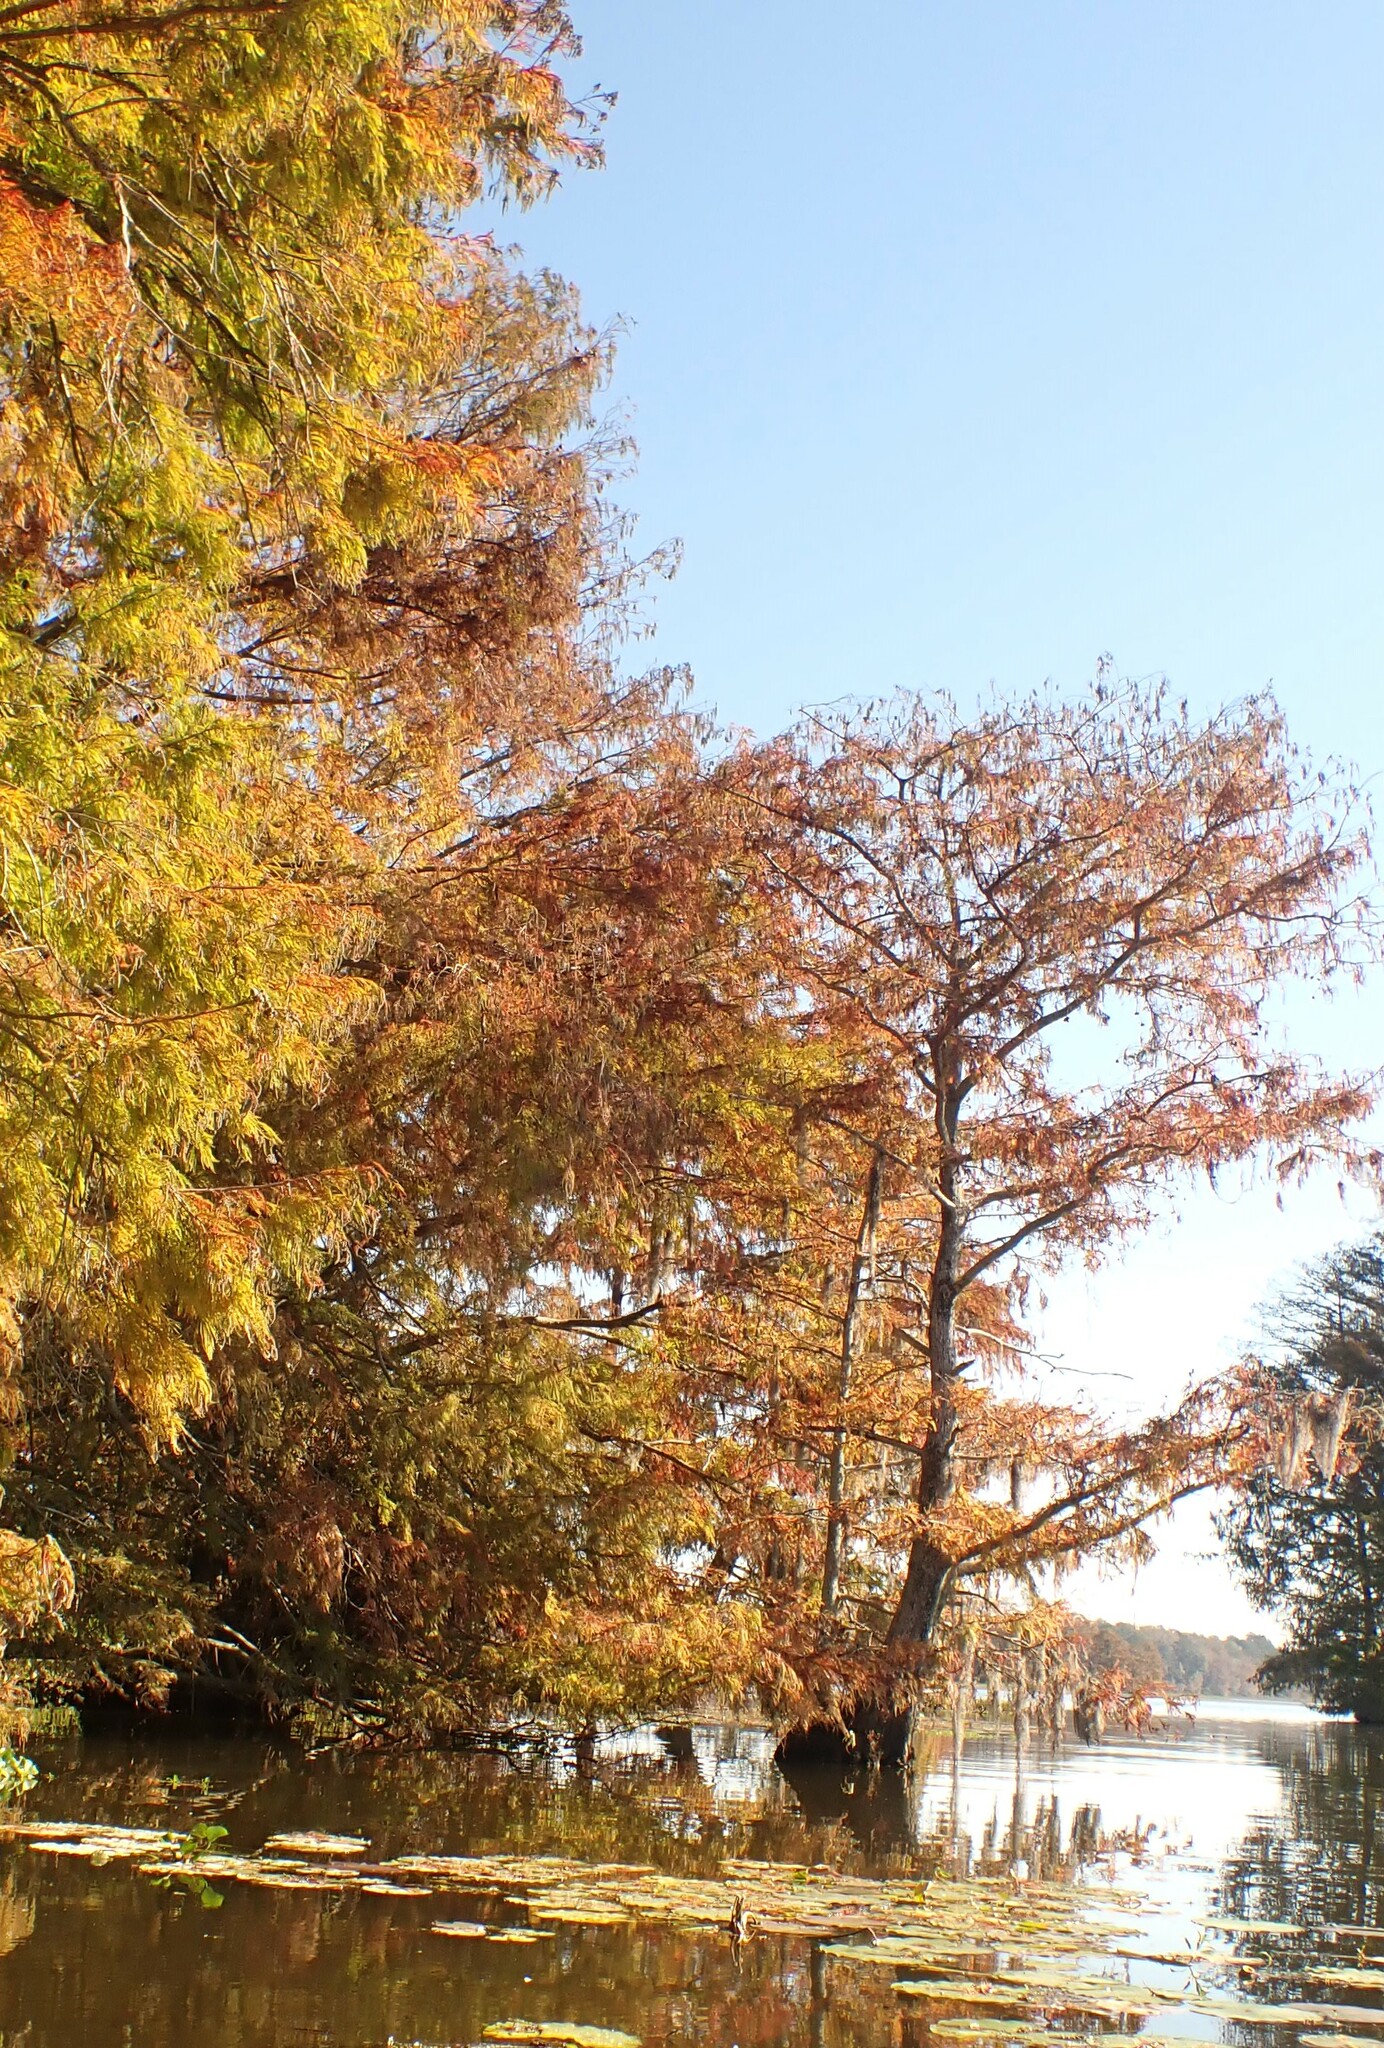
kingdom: Plantae
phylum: Tracheophyta
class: Pinopsida
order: Pinales
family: Cupressaceae
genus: Taxodium
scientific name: Taxodium distichum
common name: Bald cypress
